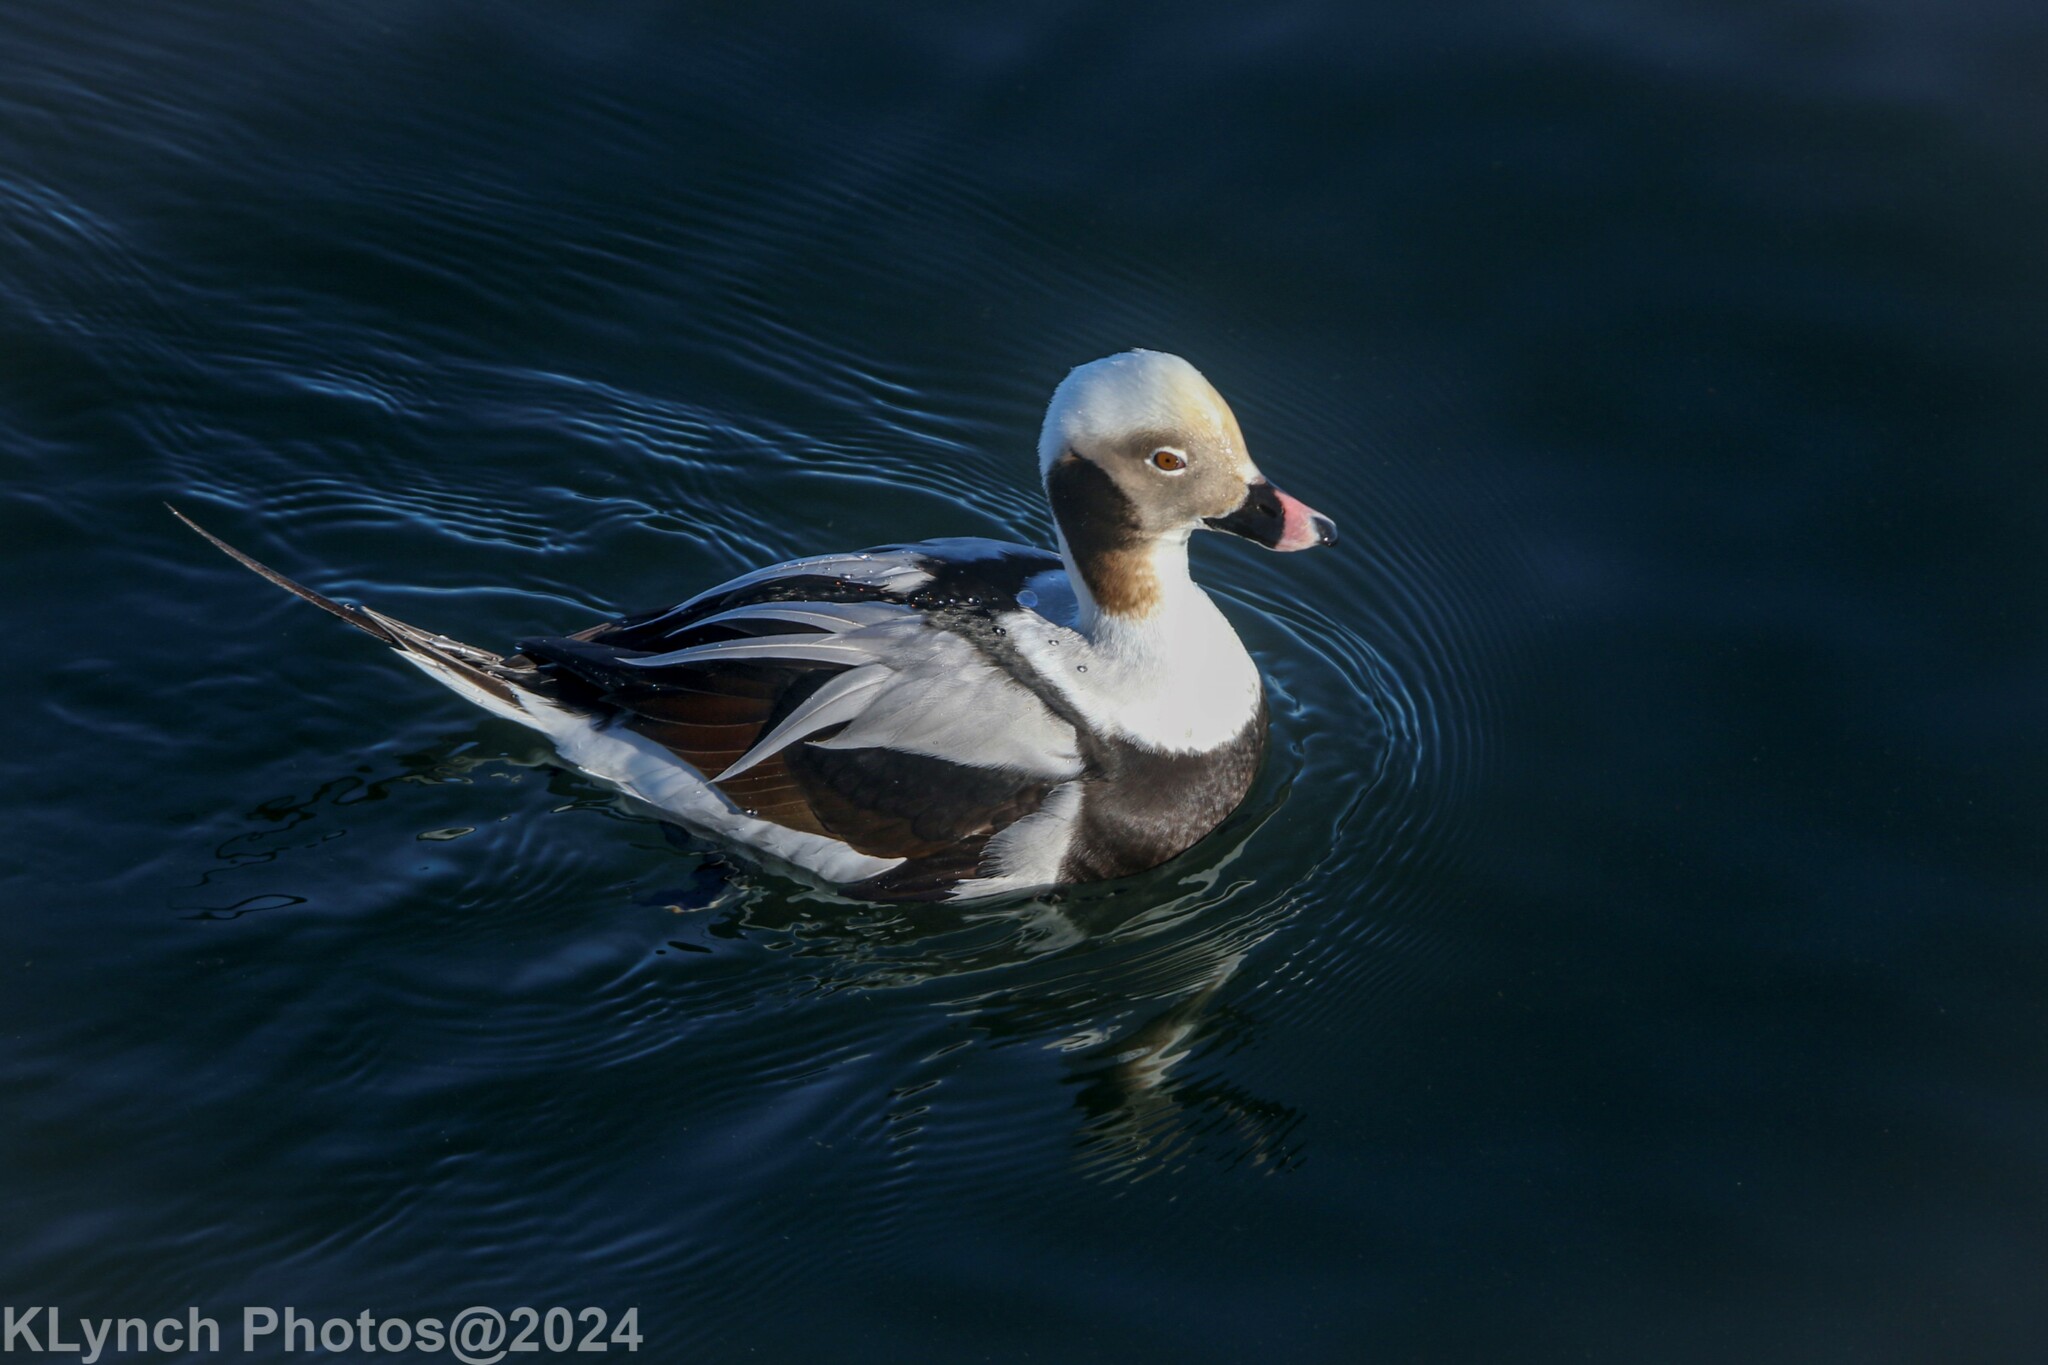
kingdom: Animalia
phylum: Chordata
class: Aves
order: Anseriformes
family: Anatidae
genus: Clangula
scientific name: Clangula hyemalis
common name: Long-tailed duck
